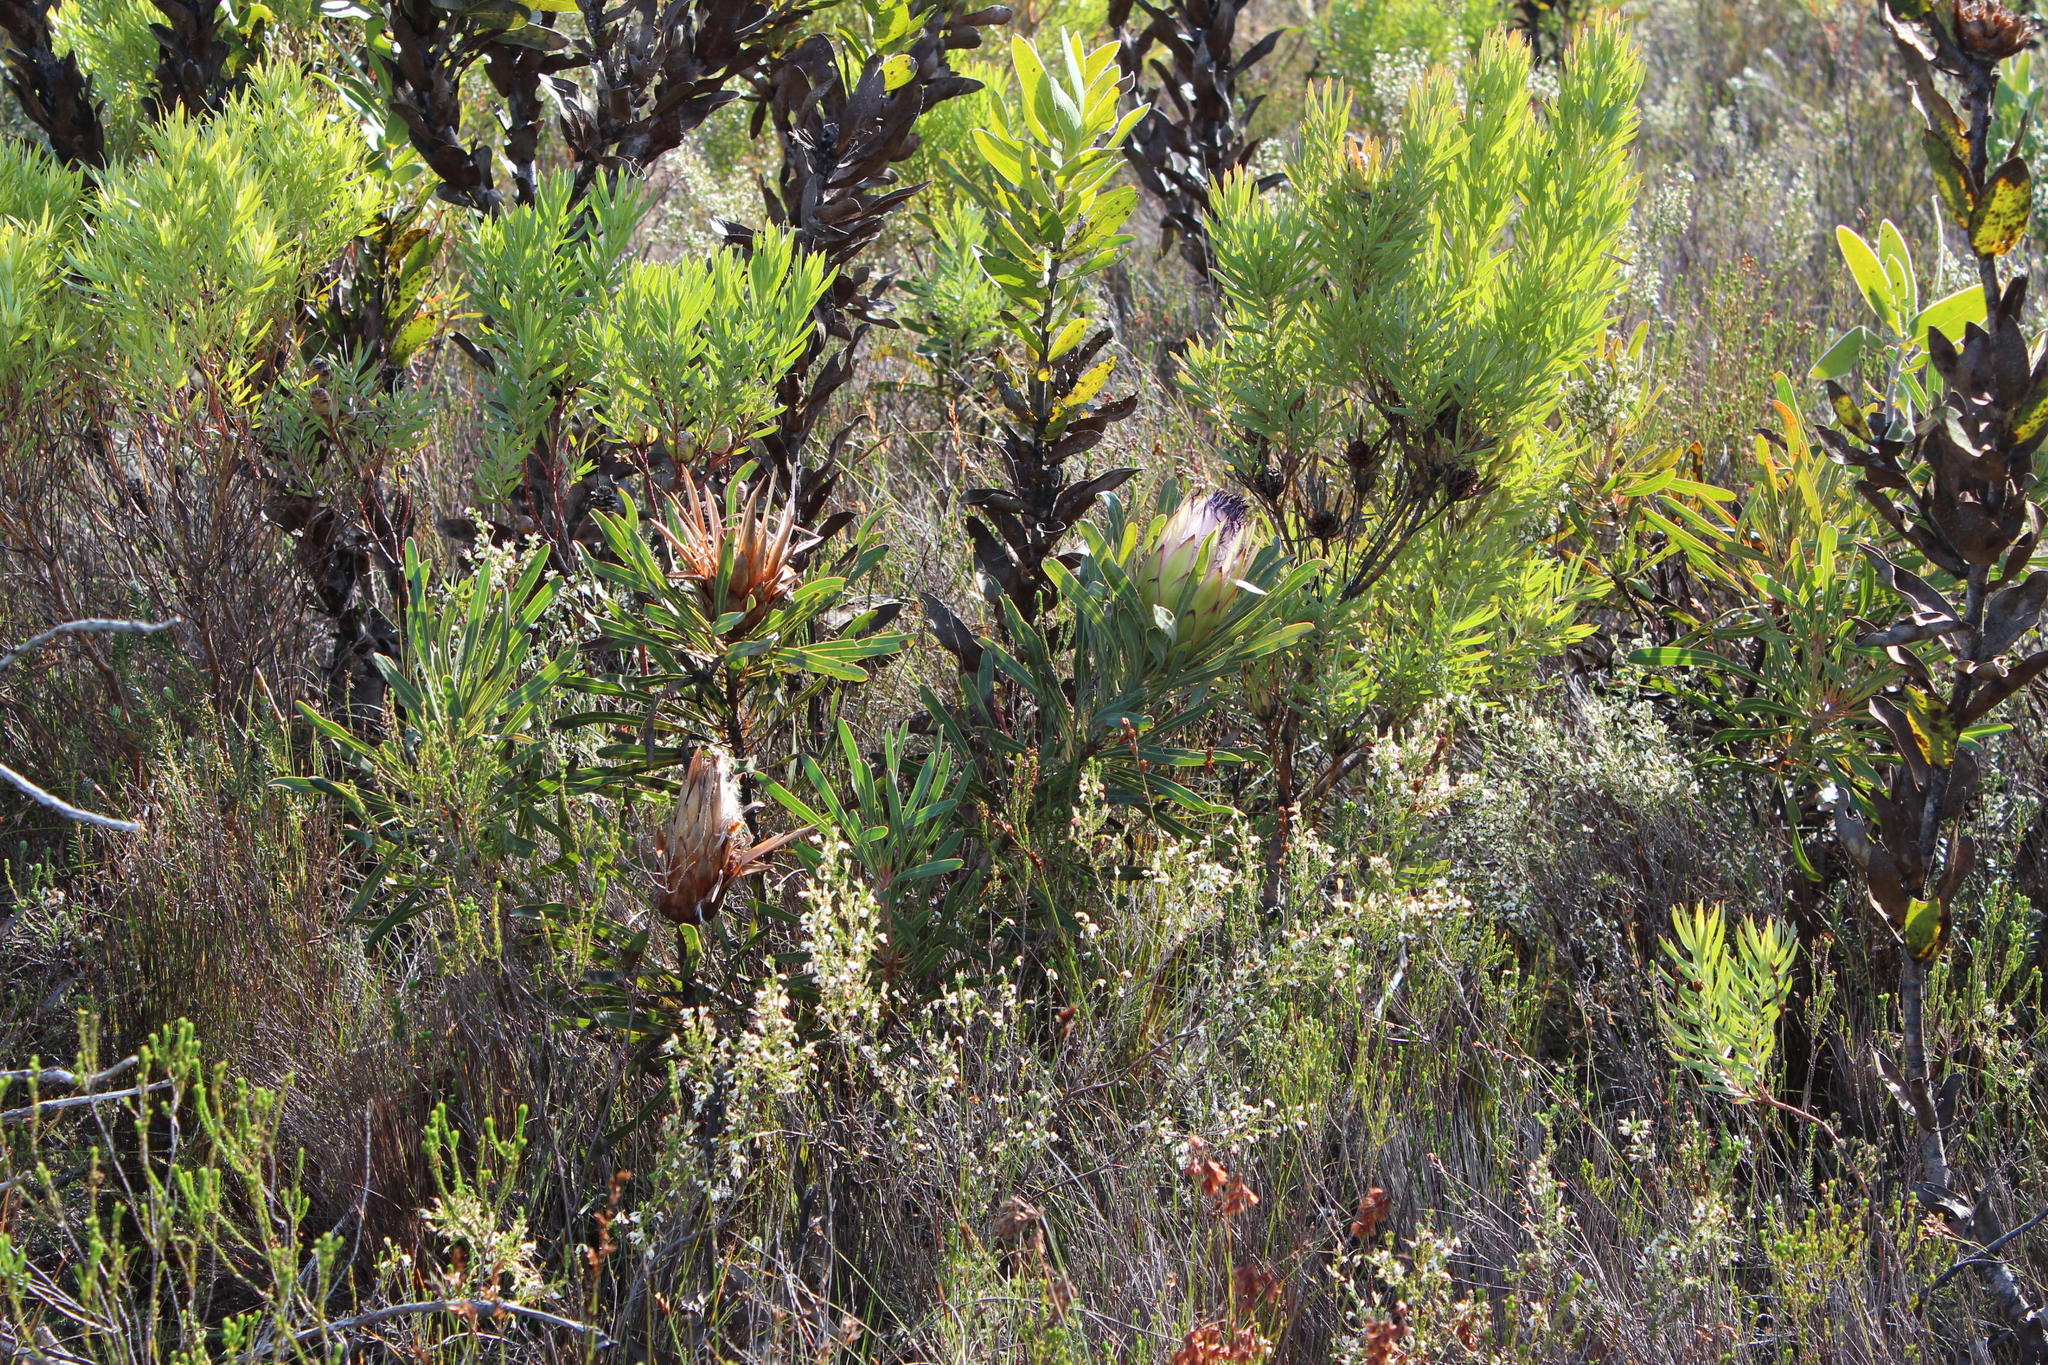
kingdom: Plantae
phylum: Tracheophyta
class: Magnoliopsida
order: Proteales
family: Proteaceae
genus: Protea
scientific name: Protea longifolia
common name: Long-leaf sugarbush
